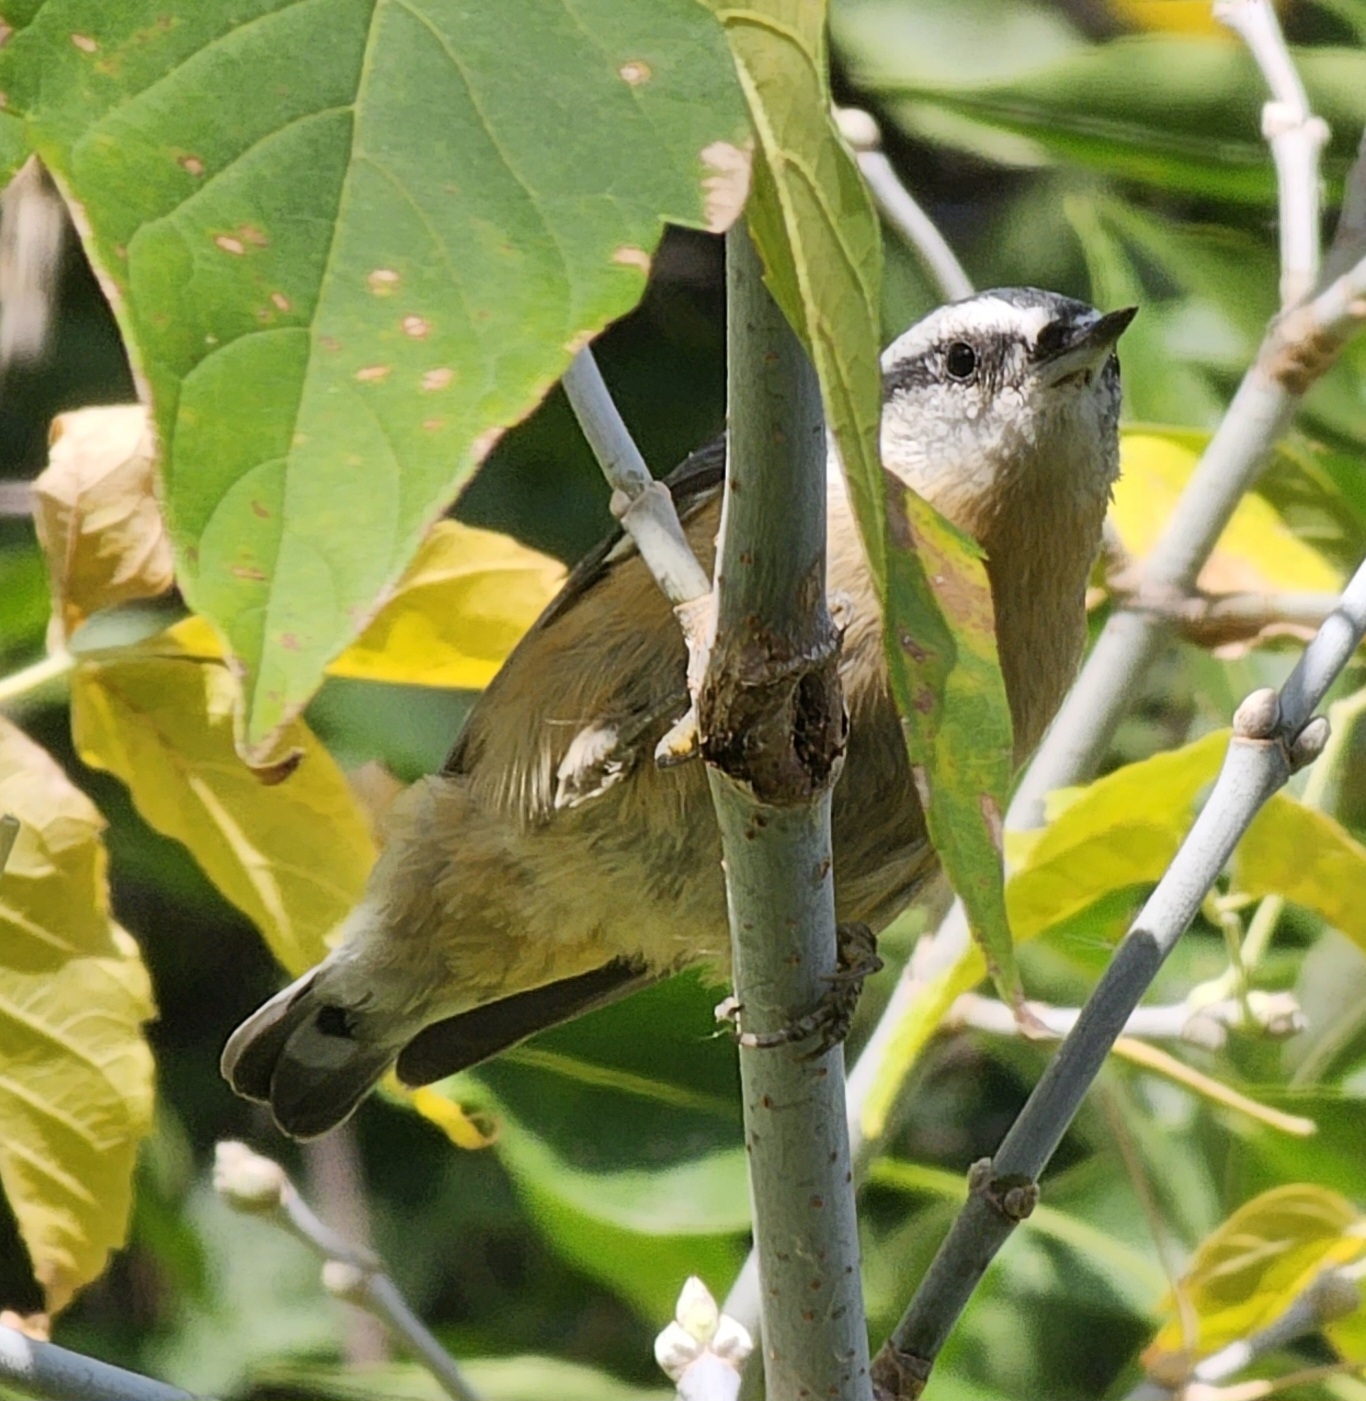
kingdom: Animalia
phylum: Chordata
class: Aves
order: Passeriformes
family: Sittidae
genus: Sitta
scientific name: Sitta canadensis
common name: Red-breasted nuthatch
